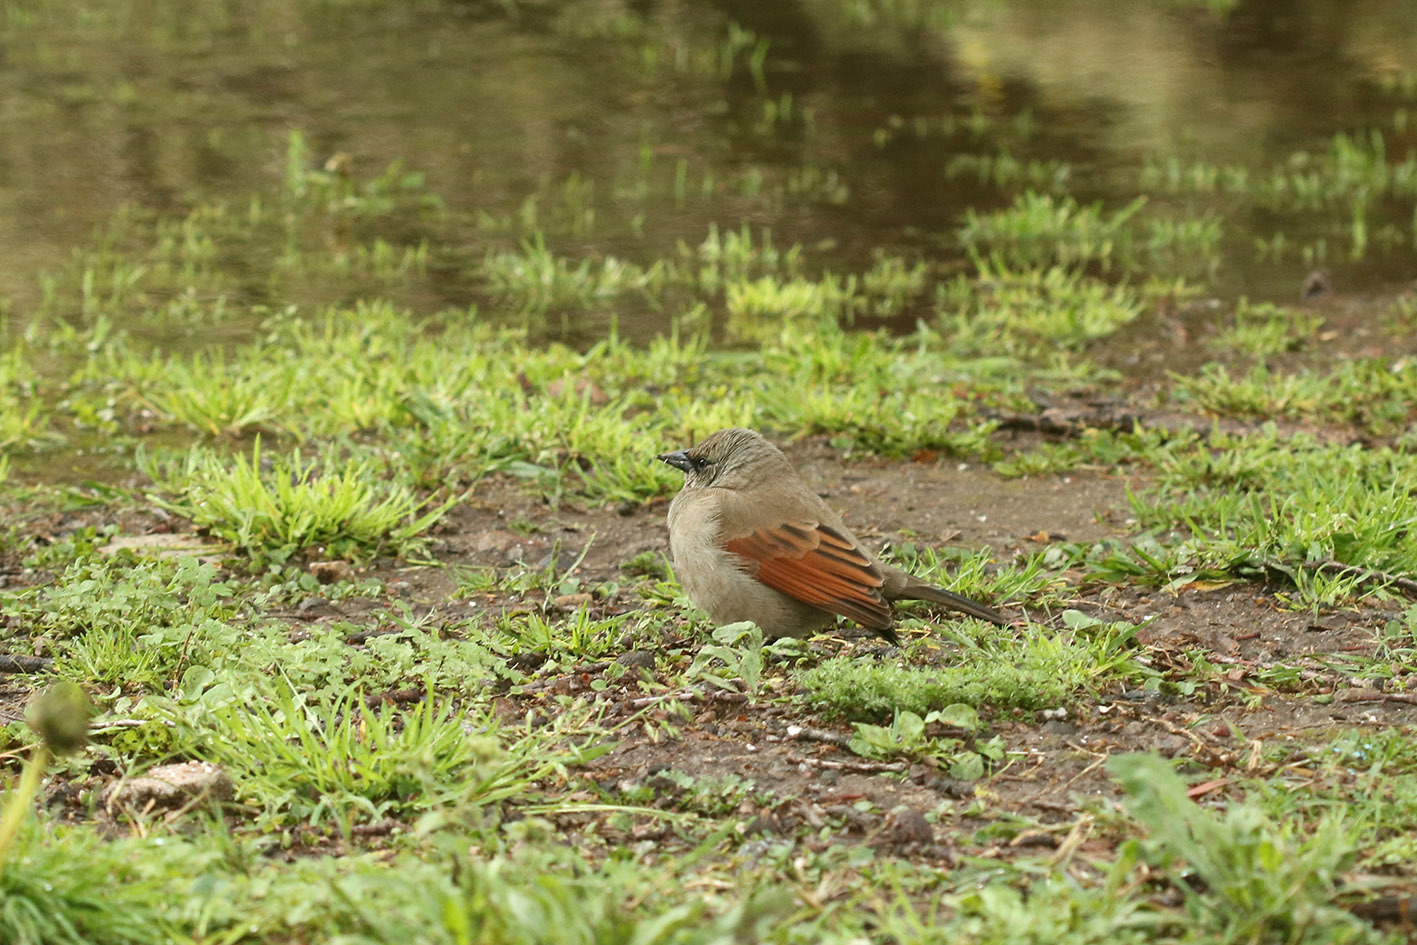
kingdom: Animalia
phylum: Chordata
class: Aves
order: Passeriformes
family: Icteridae
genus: Agelaioides
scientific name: Agelaioides badius
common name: Baywing
